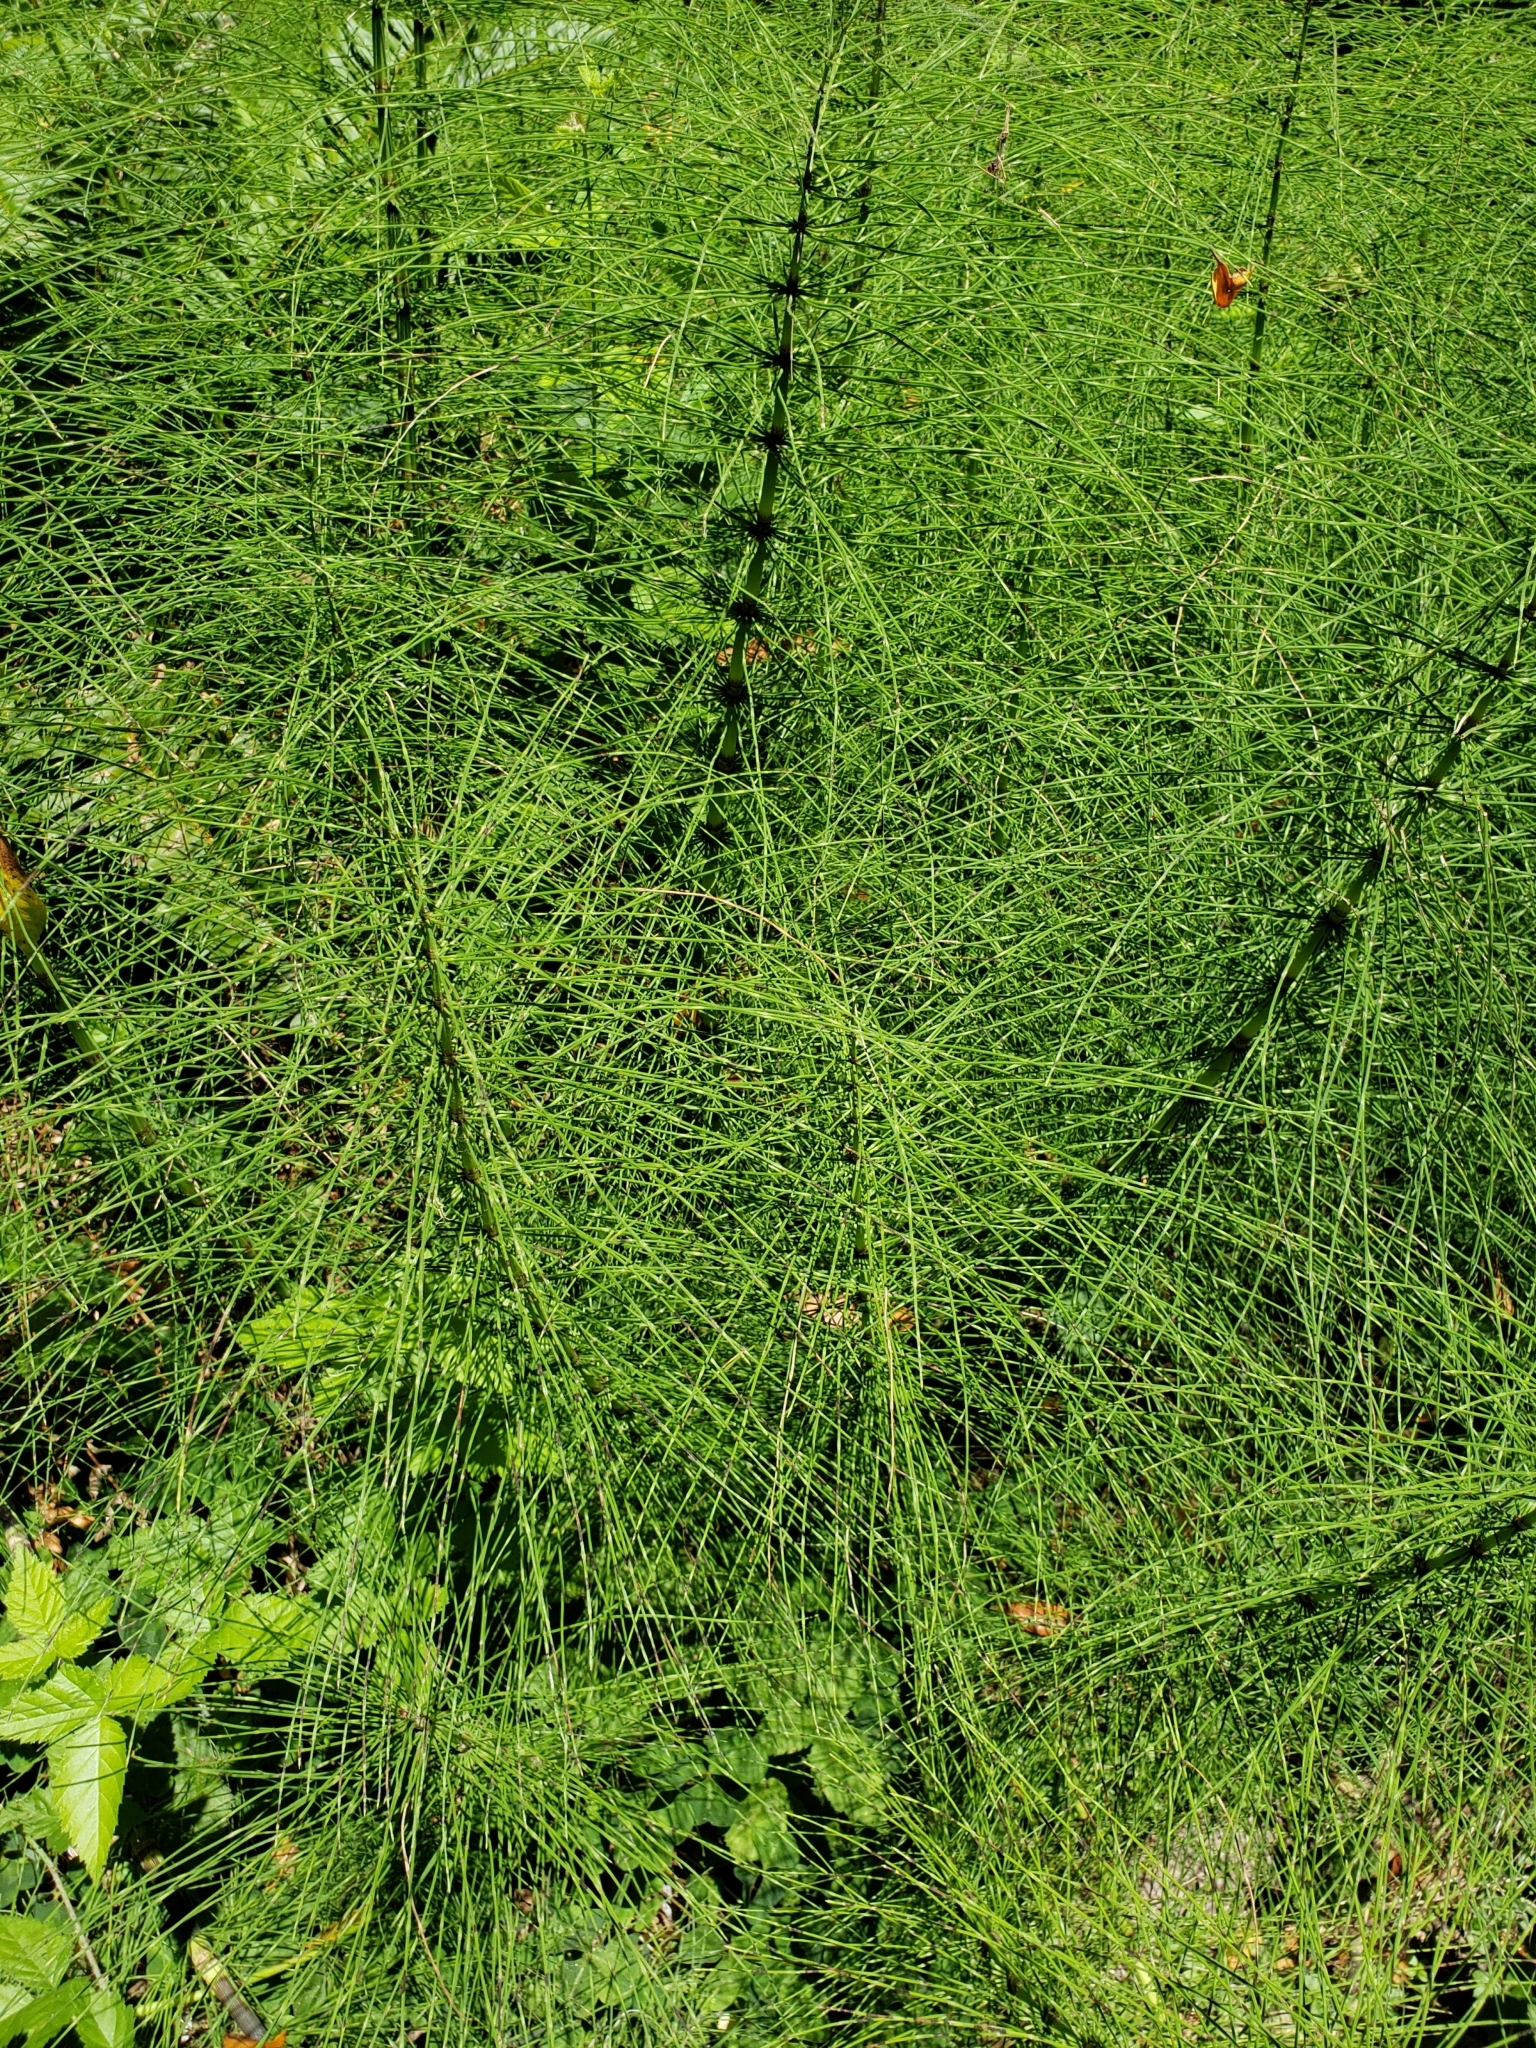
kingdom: Plantae
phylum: Tracheophyta
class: Polypodiopsida
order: Equisetales
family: Equisetaceae
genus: Equisetum
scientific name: Equisetum telmateia
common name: Great horsetail
